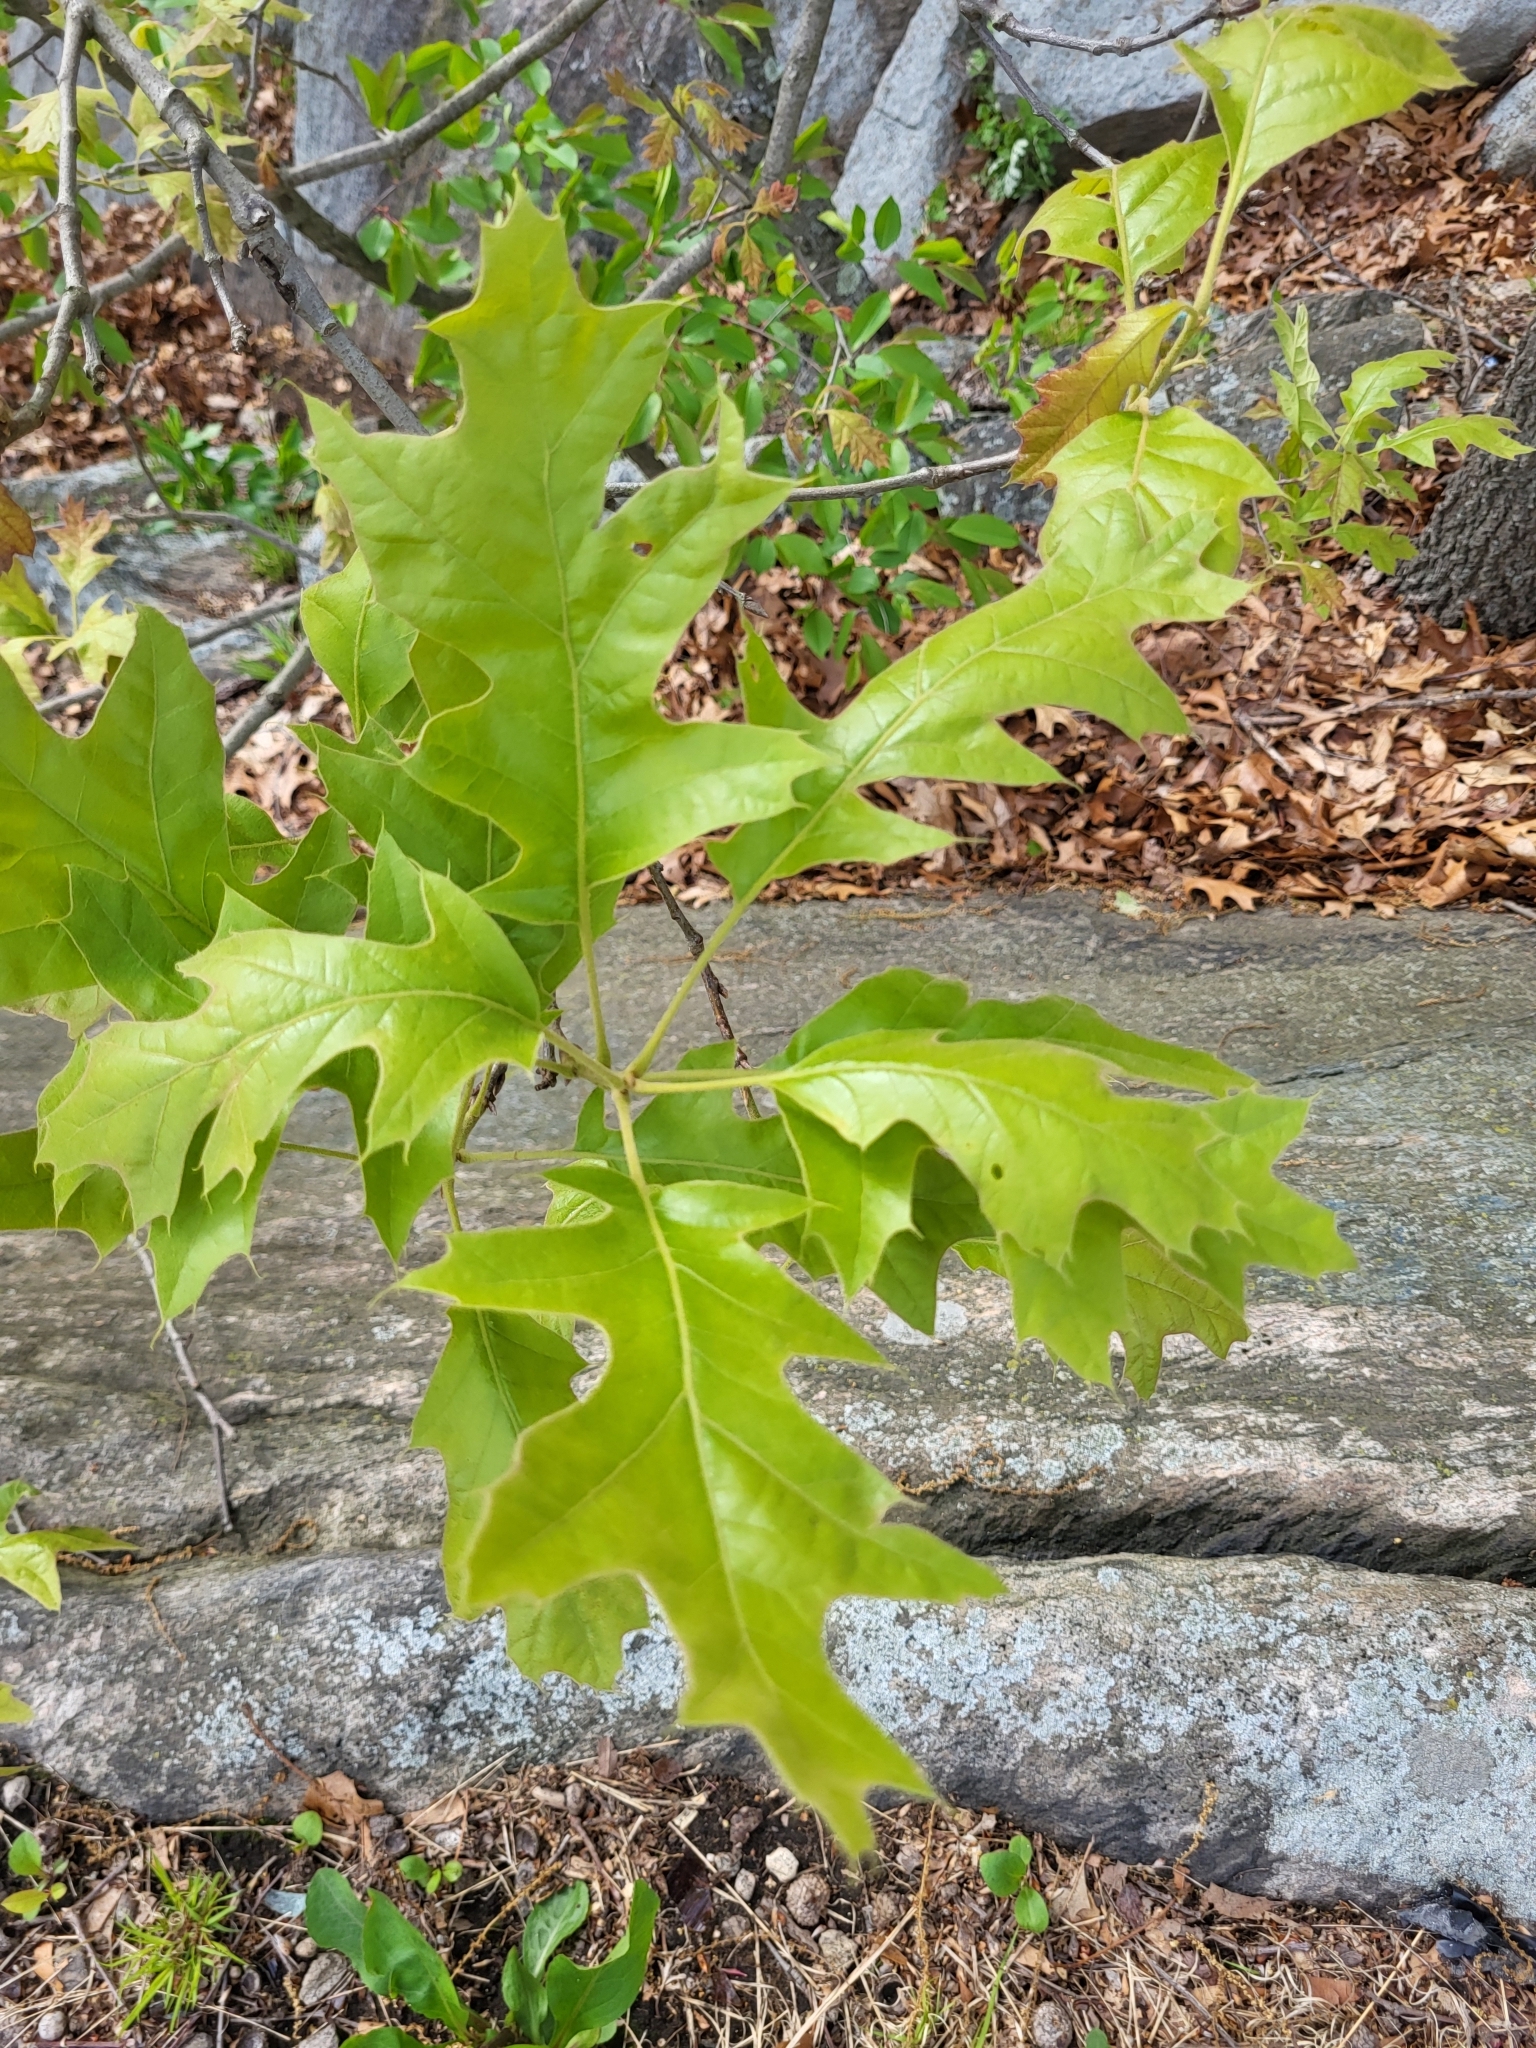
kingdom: Plantae
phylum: Tracheophyta
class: Magnoliopsida
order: Fagales
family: Fagaceae
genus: Quercus
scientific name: Quercus velutina
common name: Black oak
